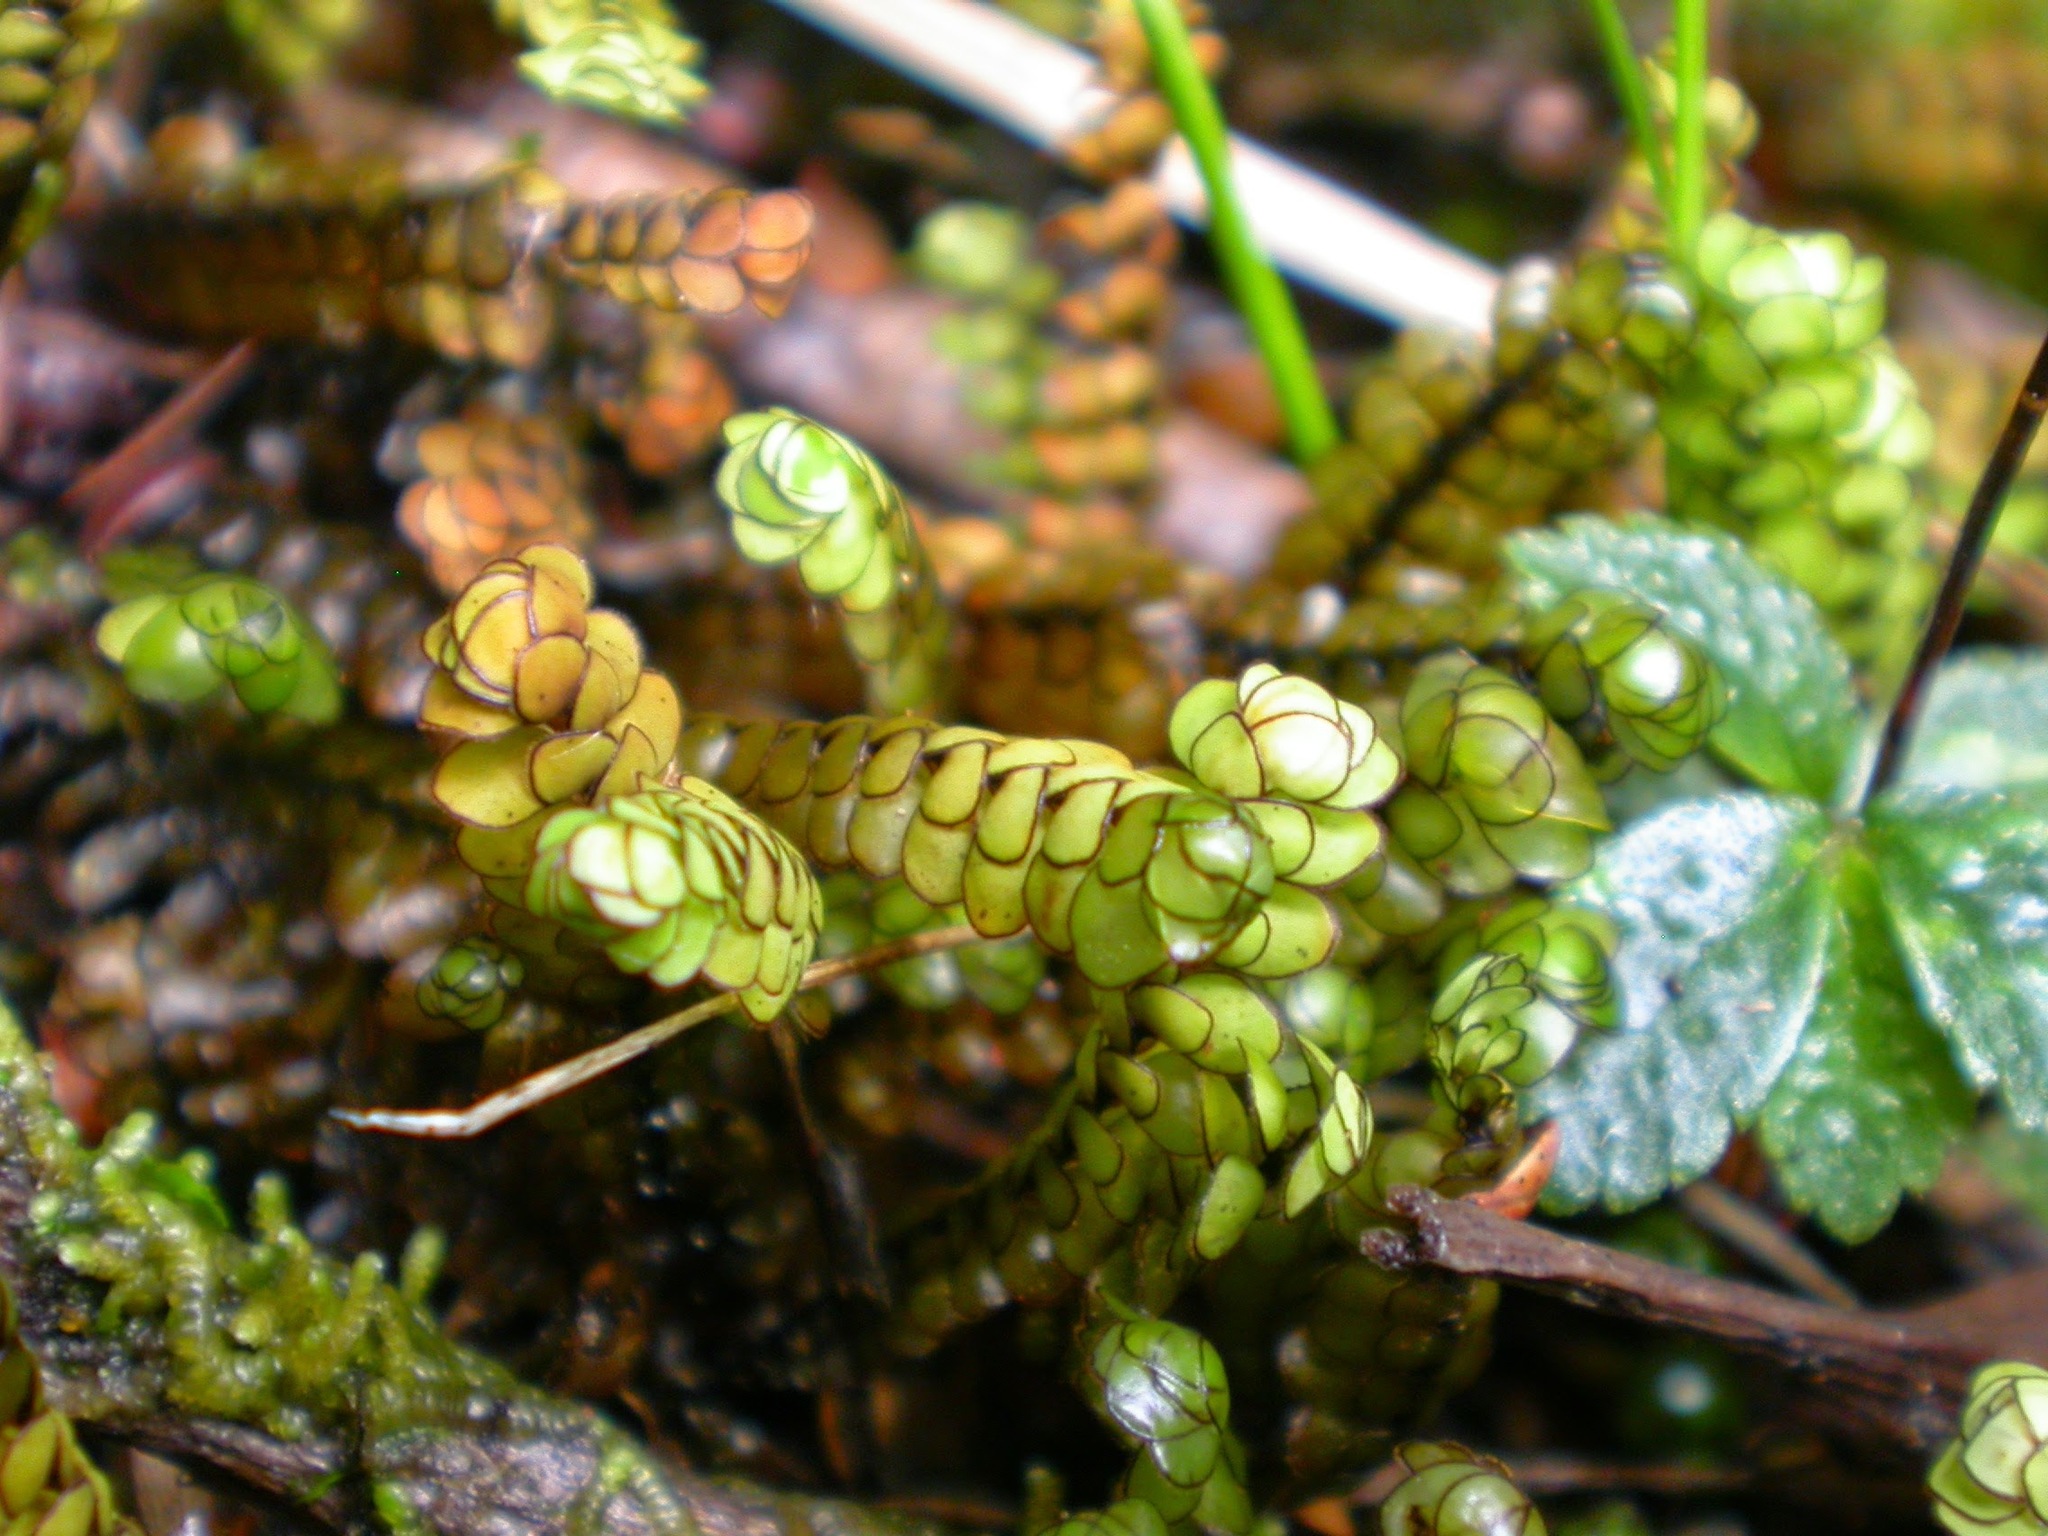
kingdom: Plantae
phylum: Marchantiophyta
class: Jungermanniopsida
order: Jungermanniales
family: Scapaniaceae
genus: Scapania
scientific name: Scapania lepida
